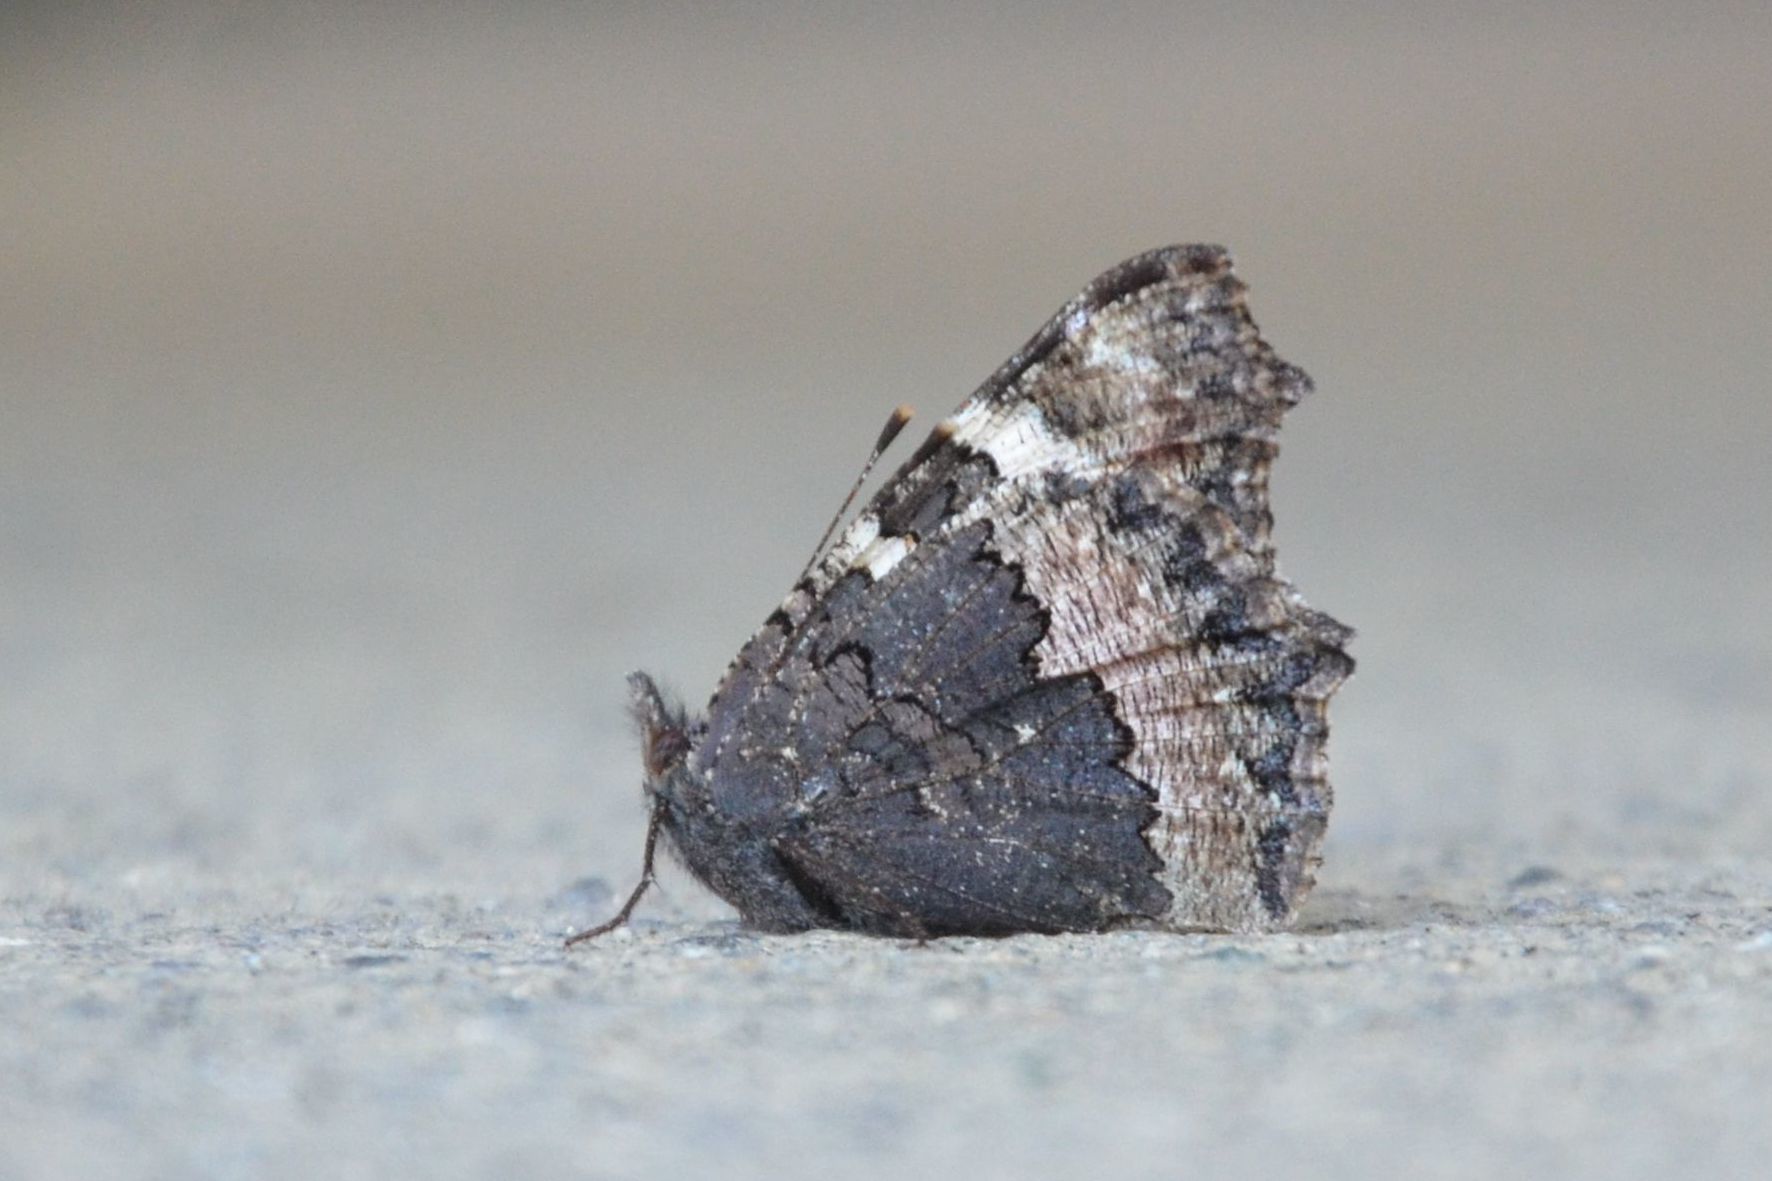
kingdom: Animalia
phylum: Arthropoda
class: Insecta
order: Lepidoptera
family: Nymphalidae
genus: Aglais
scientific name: Aglais urticae
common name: Small tortoiseshell
